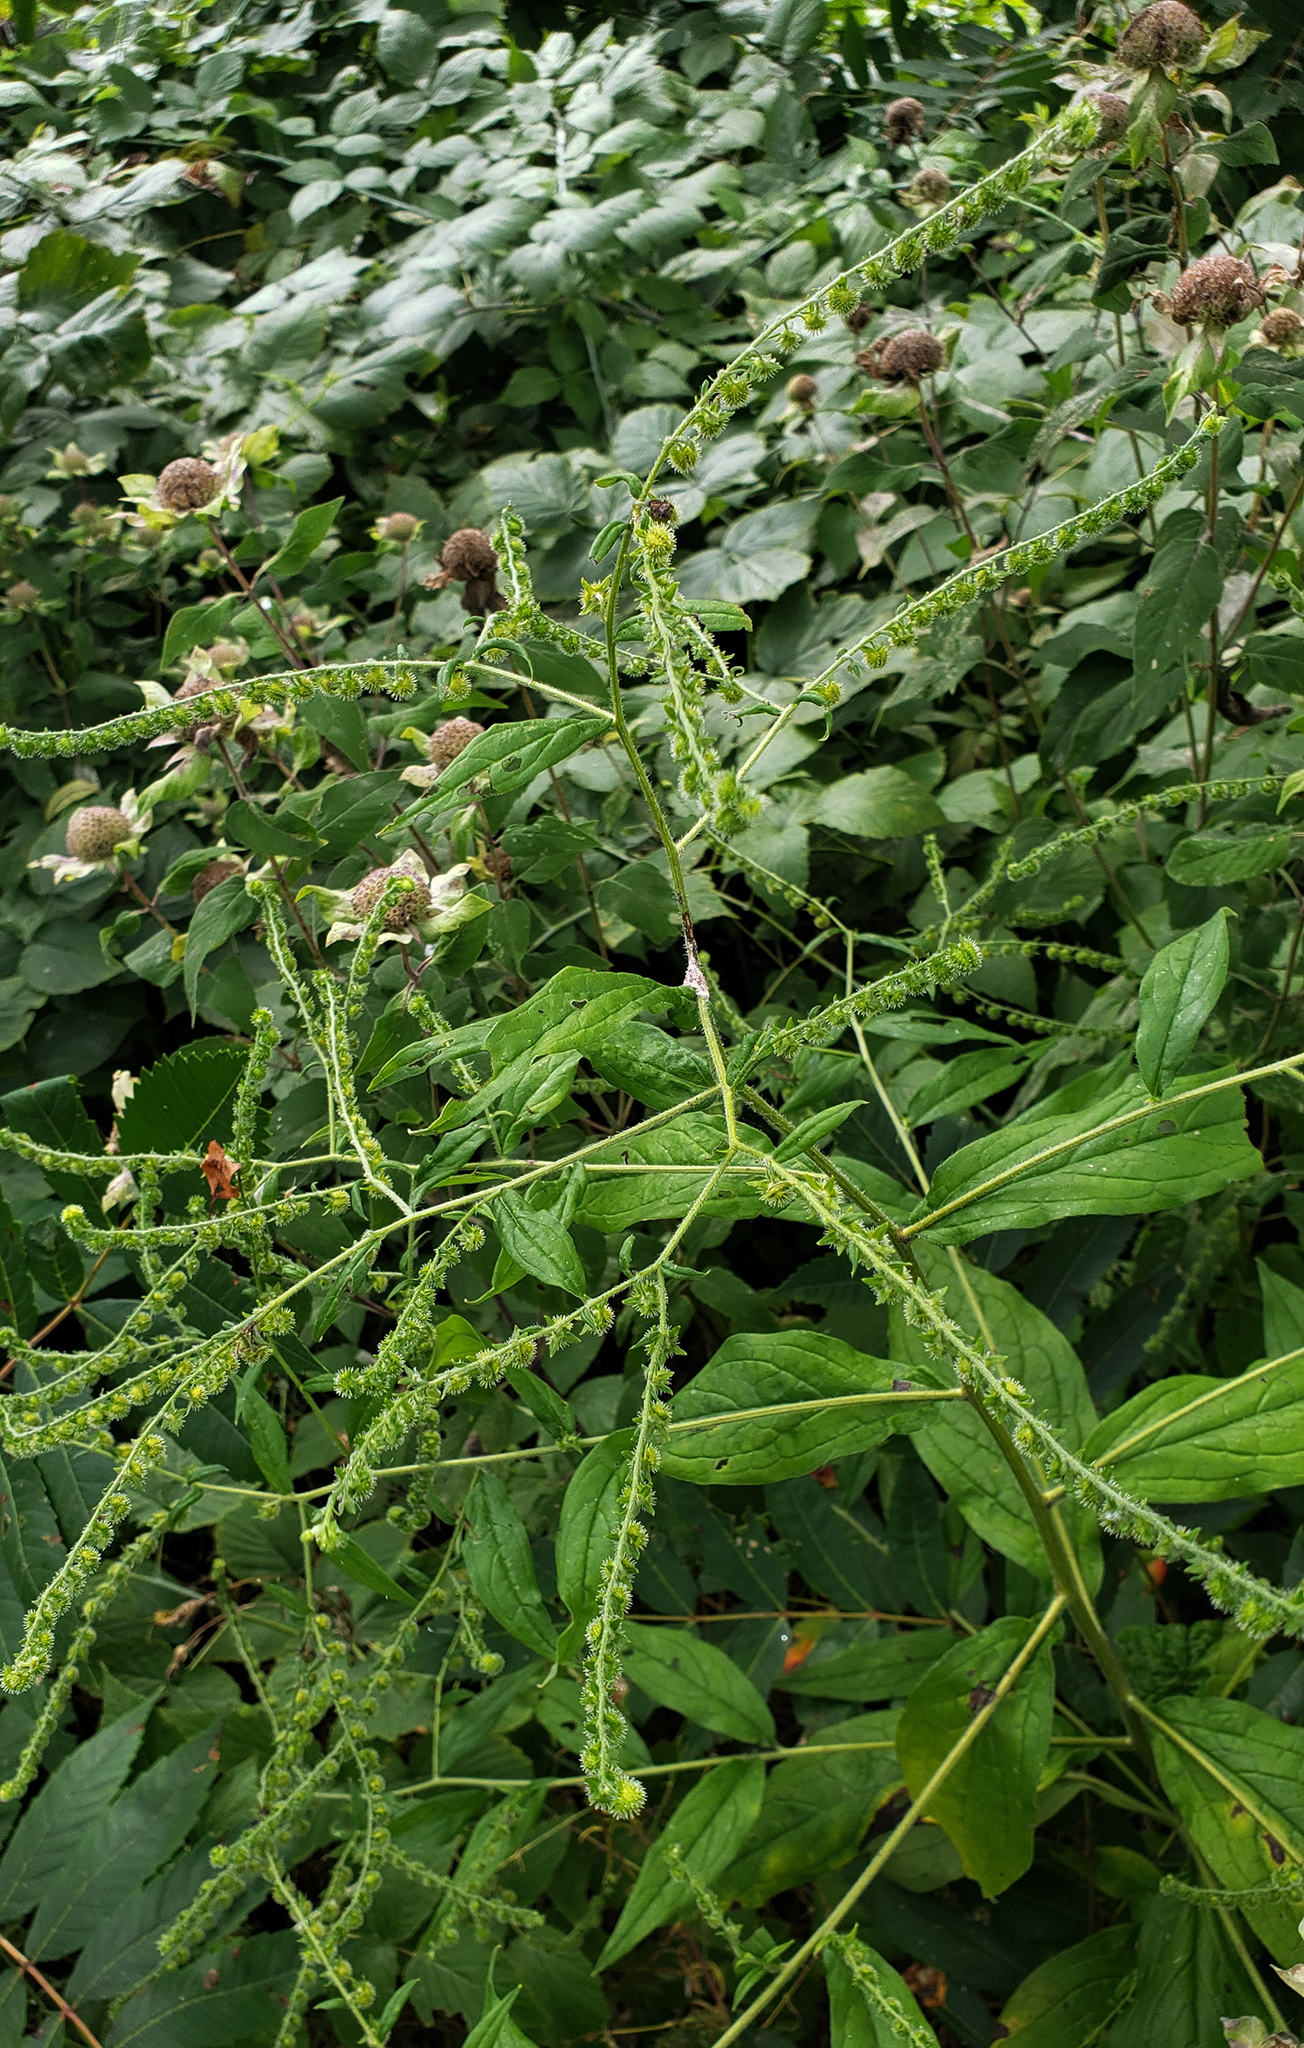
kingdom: Plantae
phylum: Tracheophyta
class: Magnoliopsida
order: Boraginales
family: Boraginaceae
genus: Hackelia
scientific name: Hackelia virginiana
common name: Beggar's-lice
